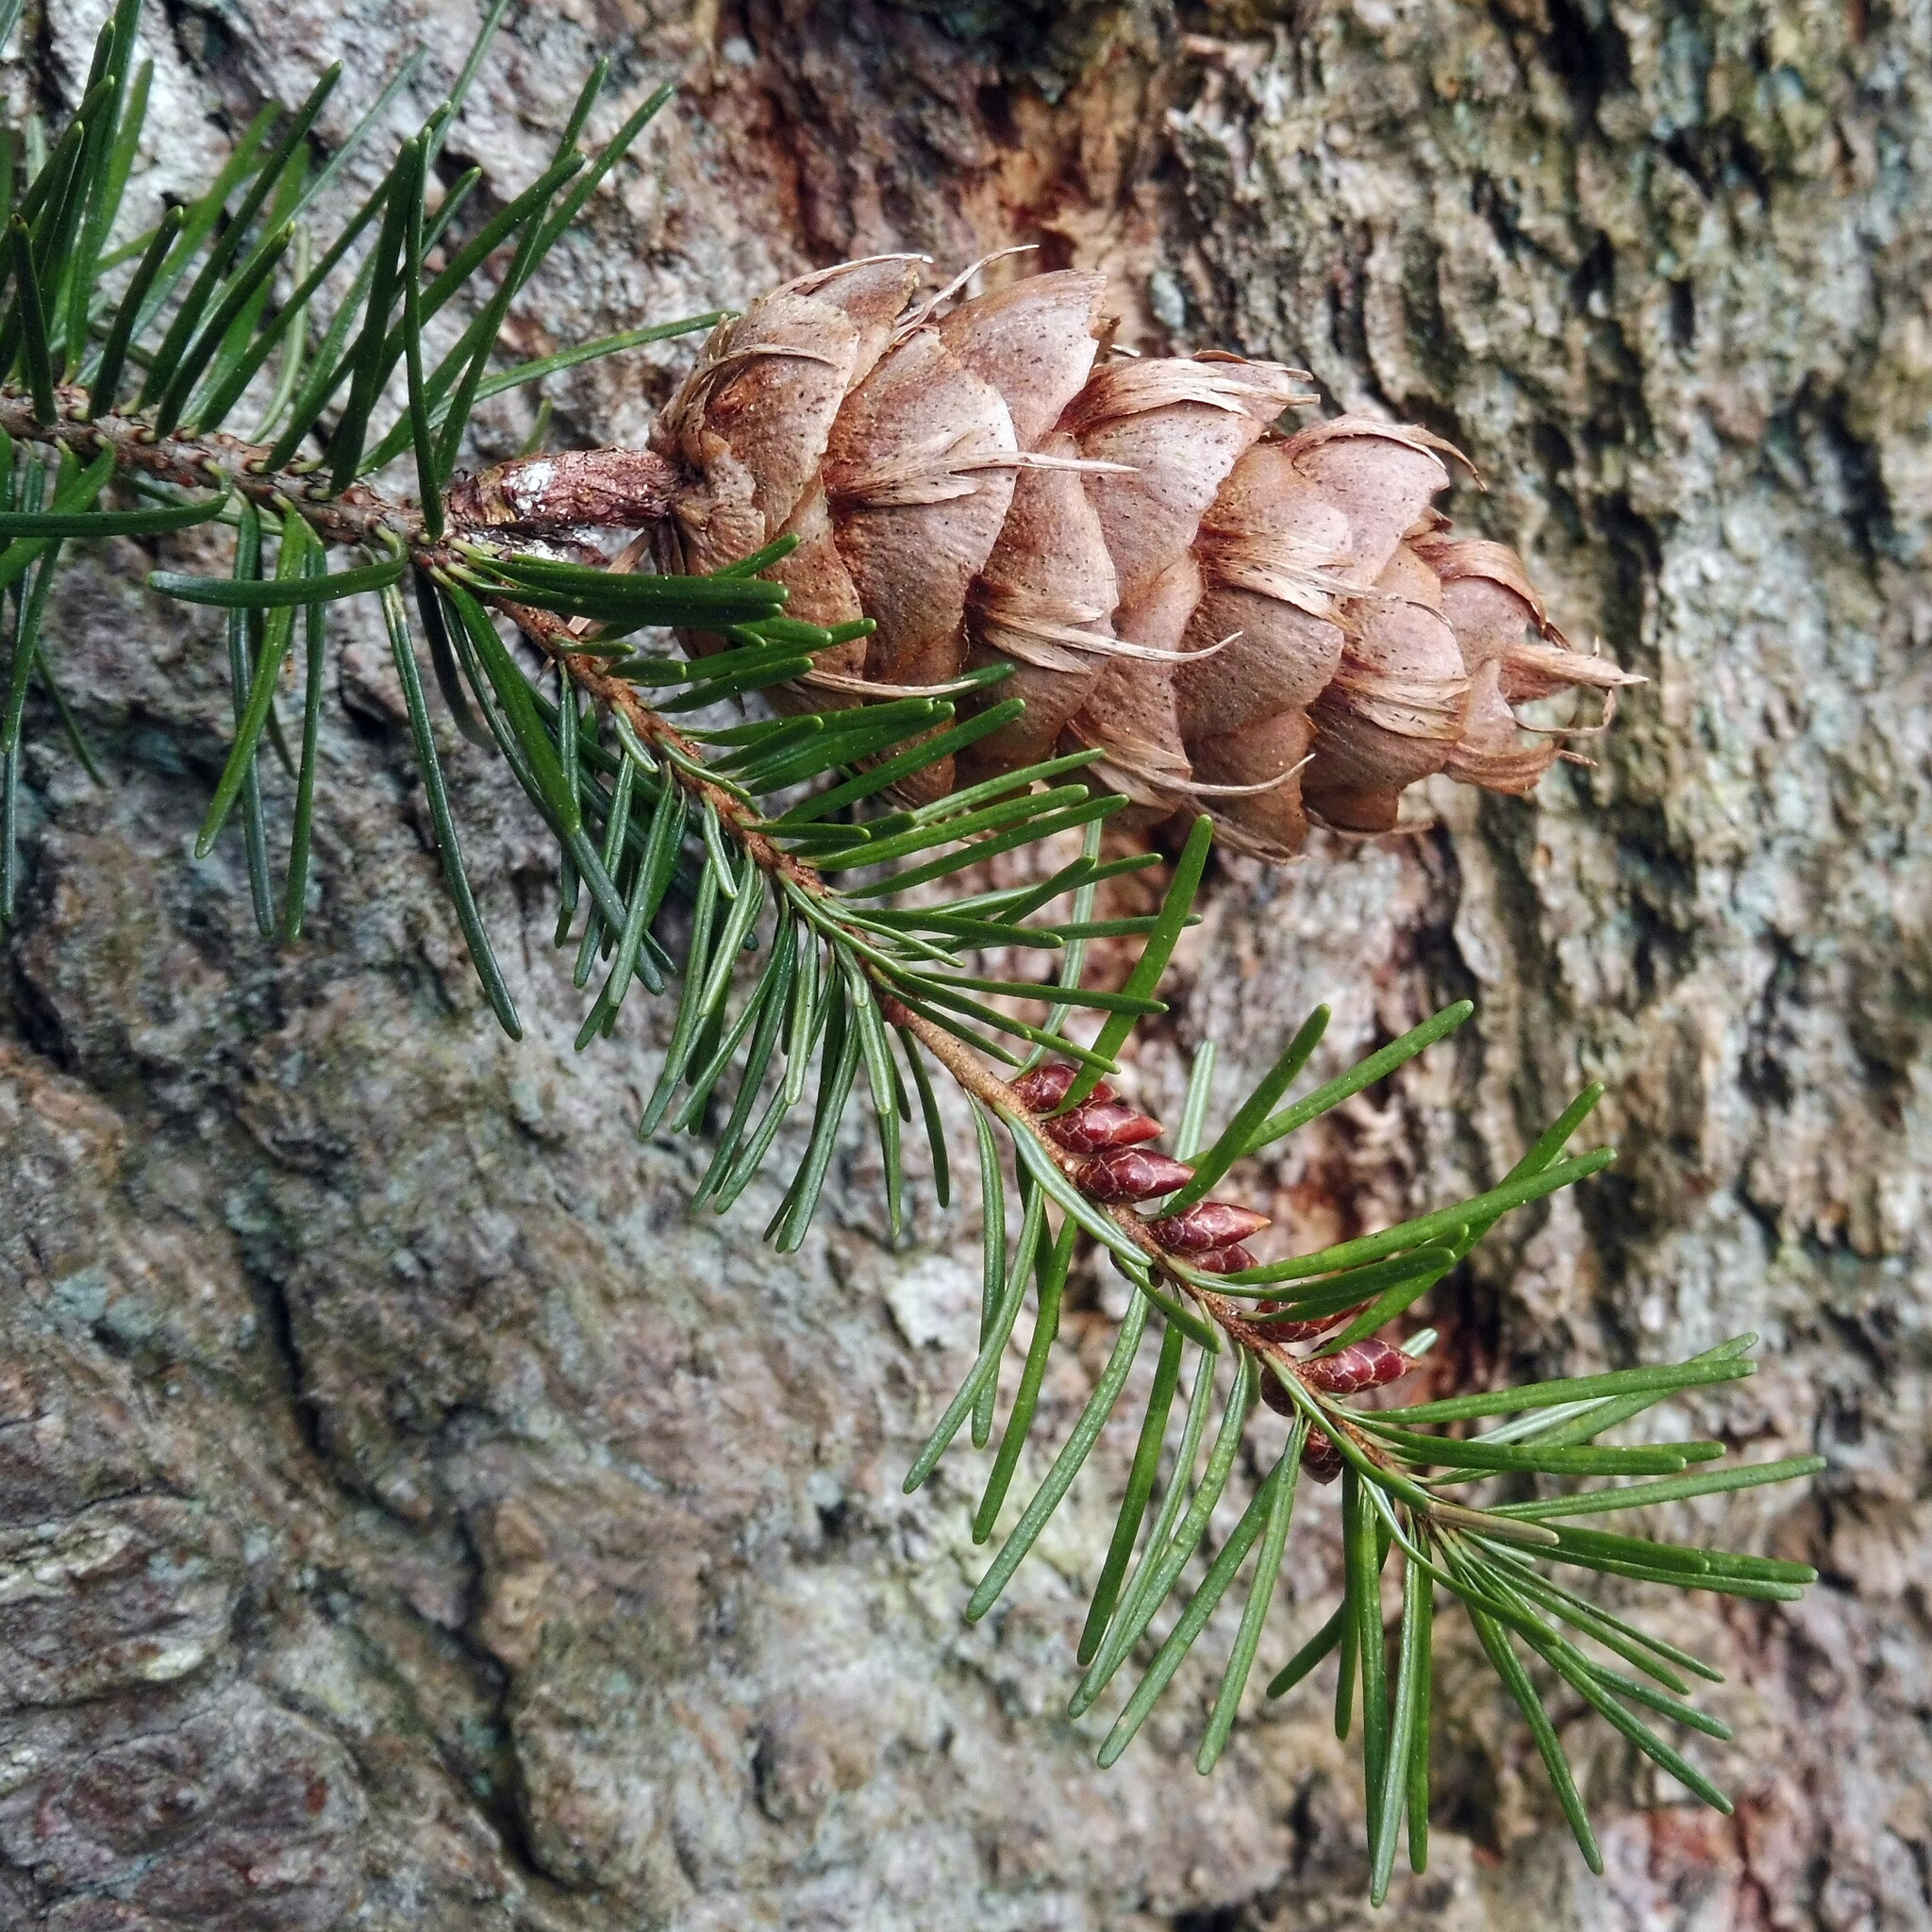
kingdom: Plantae
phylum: Tracheophyta
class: Pinopsida
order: Pinales
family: Pinaceae
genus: Pseudotsuga
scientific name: Pseudotsuga menziesii
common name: Douglas fir
